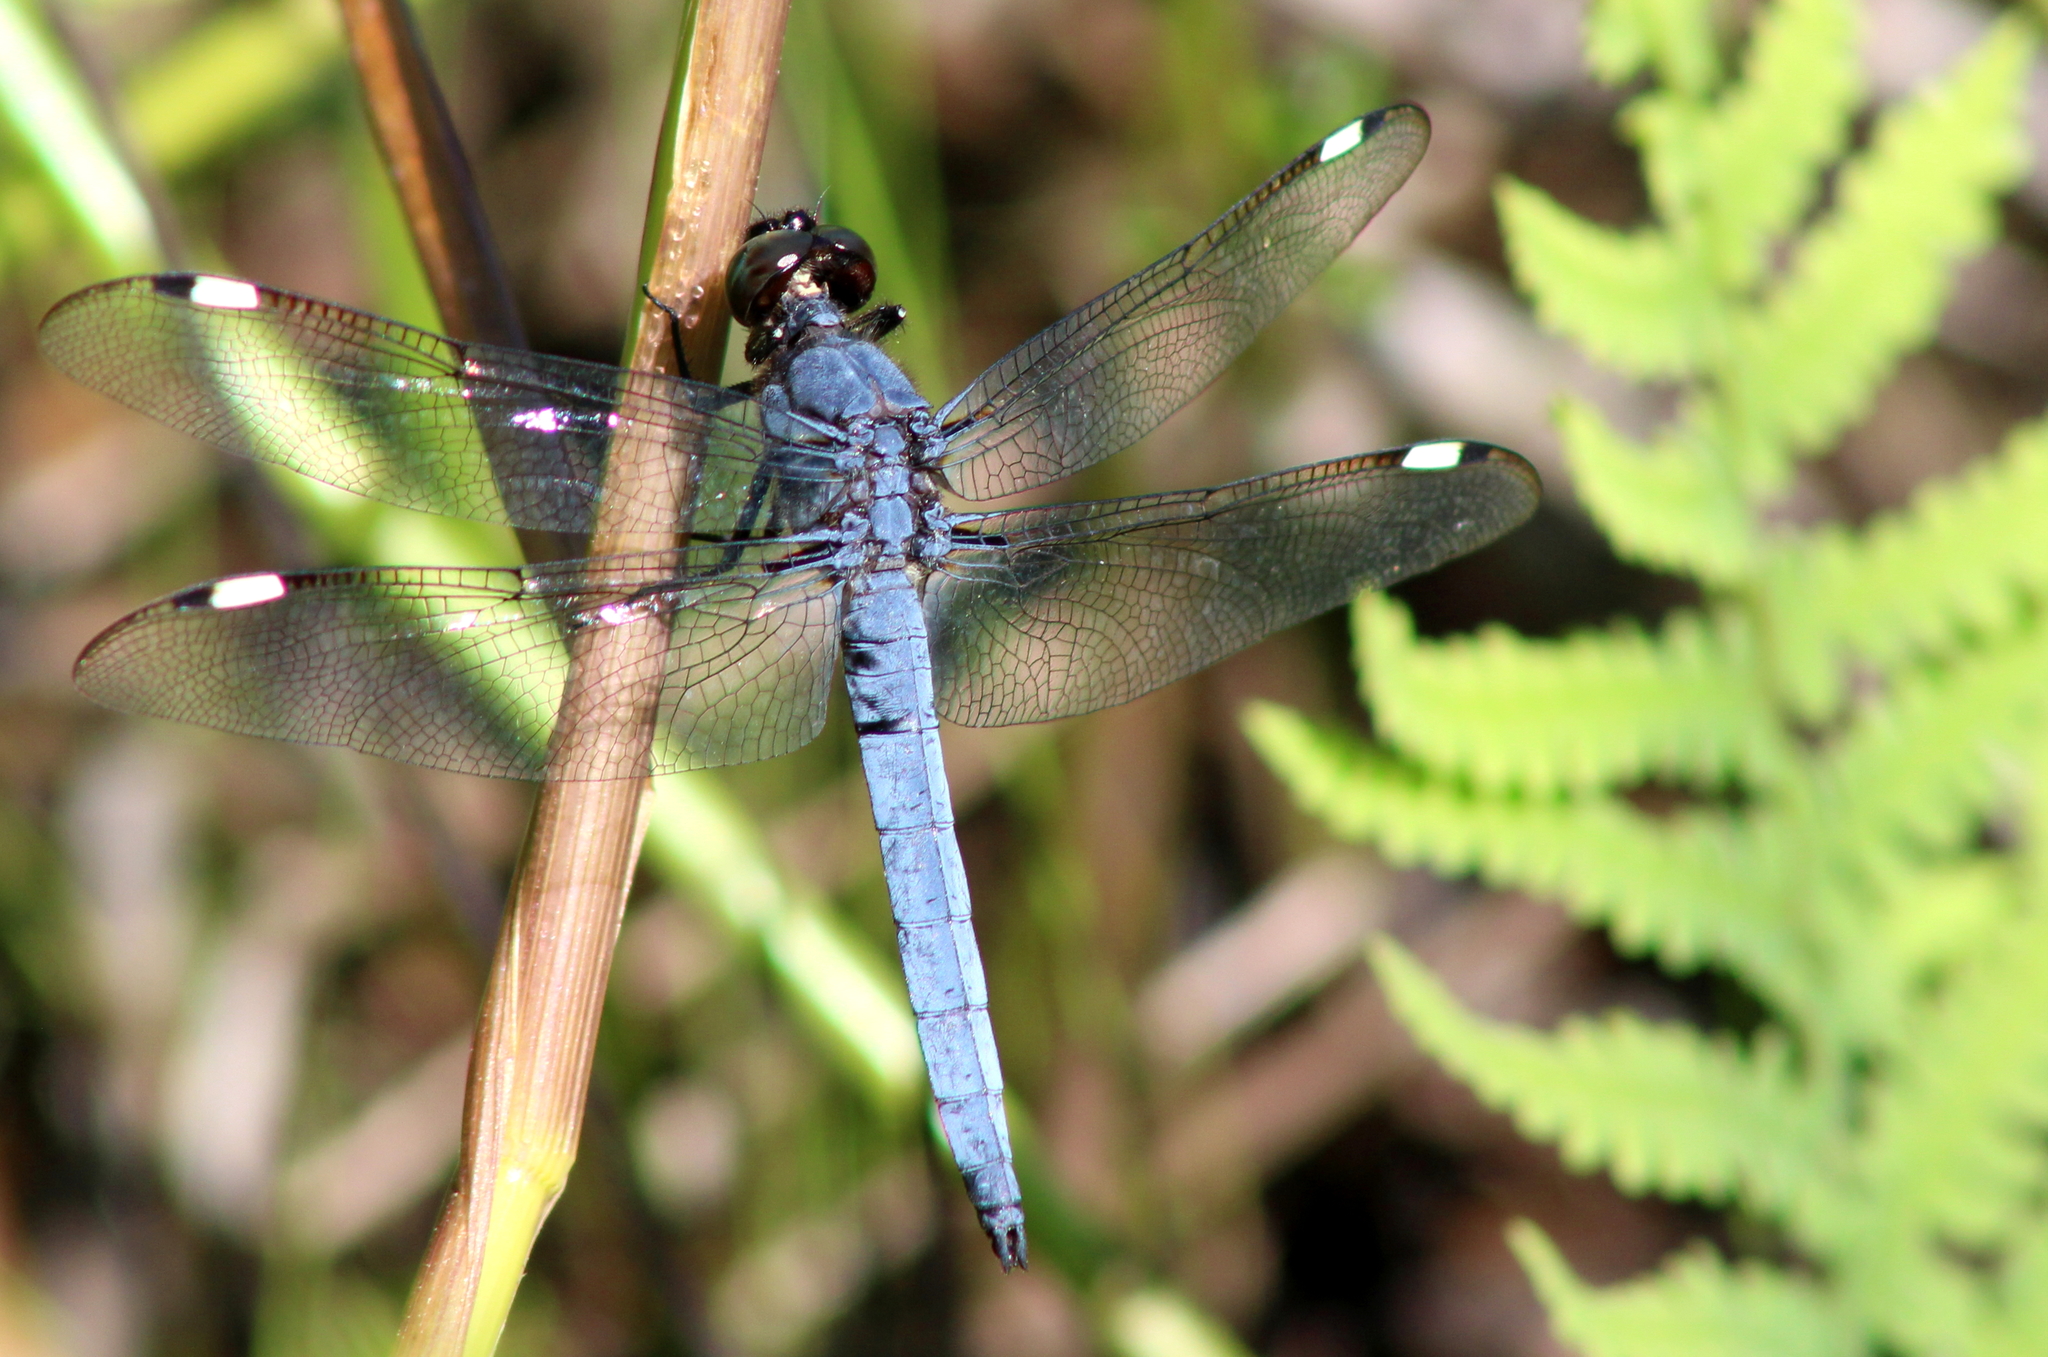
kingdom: Animalia
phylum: Arthropoda
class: Insecta
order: Odonata
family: Libellulidae
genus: Libellula
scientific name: Libellula cyanea
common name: Spangled skimmer
